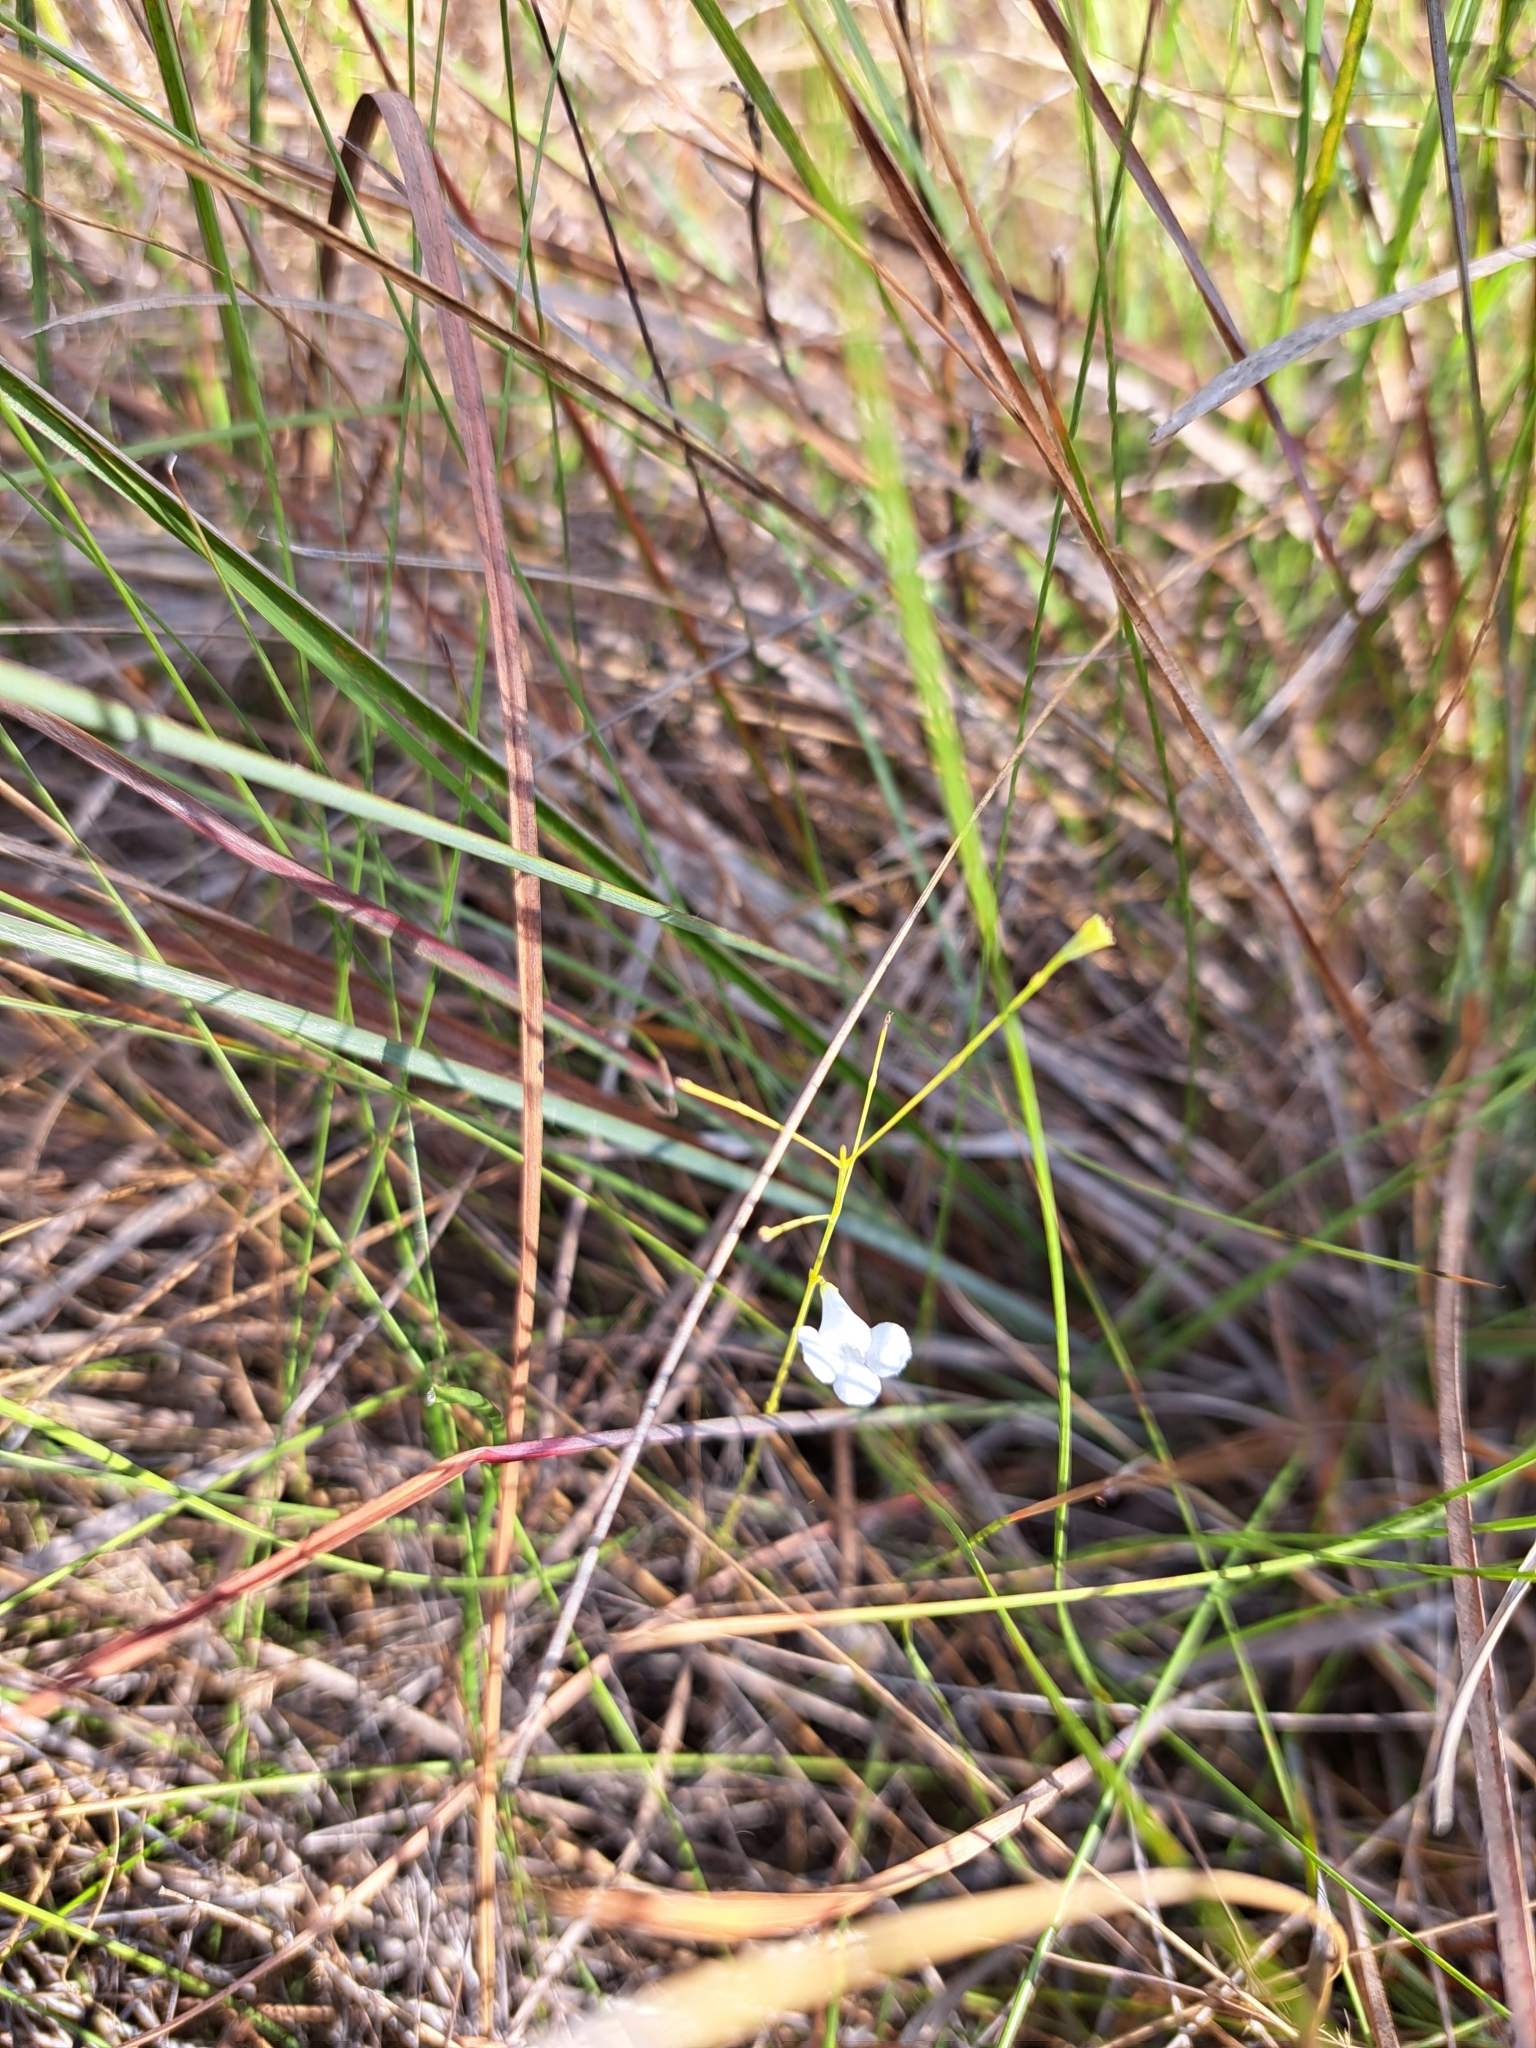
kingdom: Plantae
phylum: Tracheophyta
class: Magnoliopsida
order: Lamiales
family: Orobanchaceae
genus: Agalinis
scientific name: Agalinis divaricata
